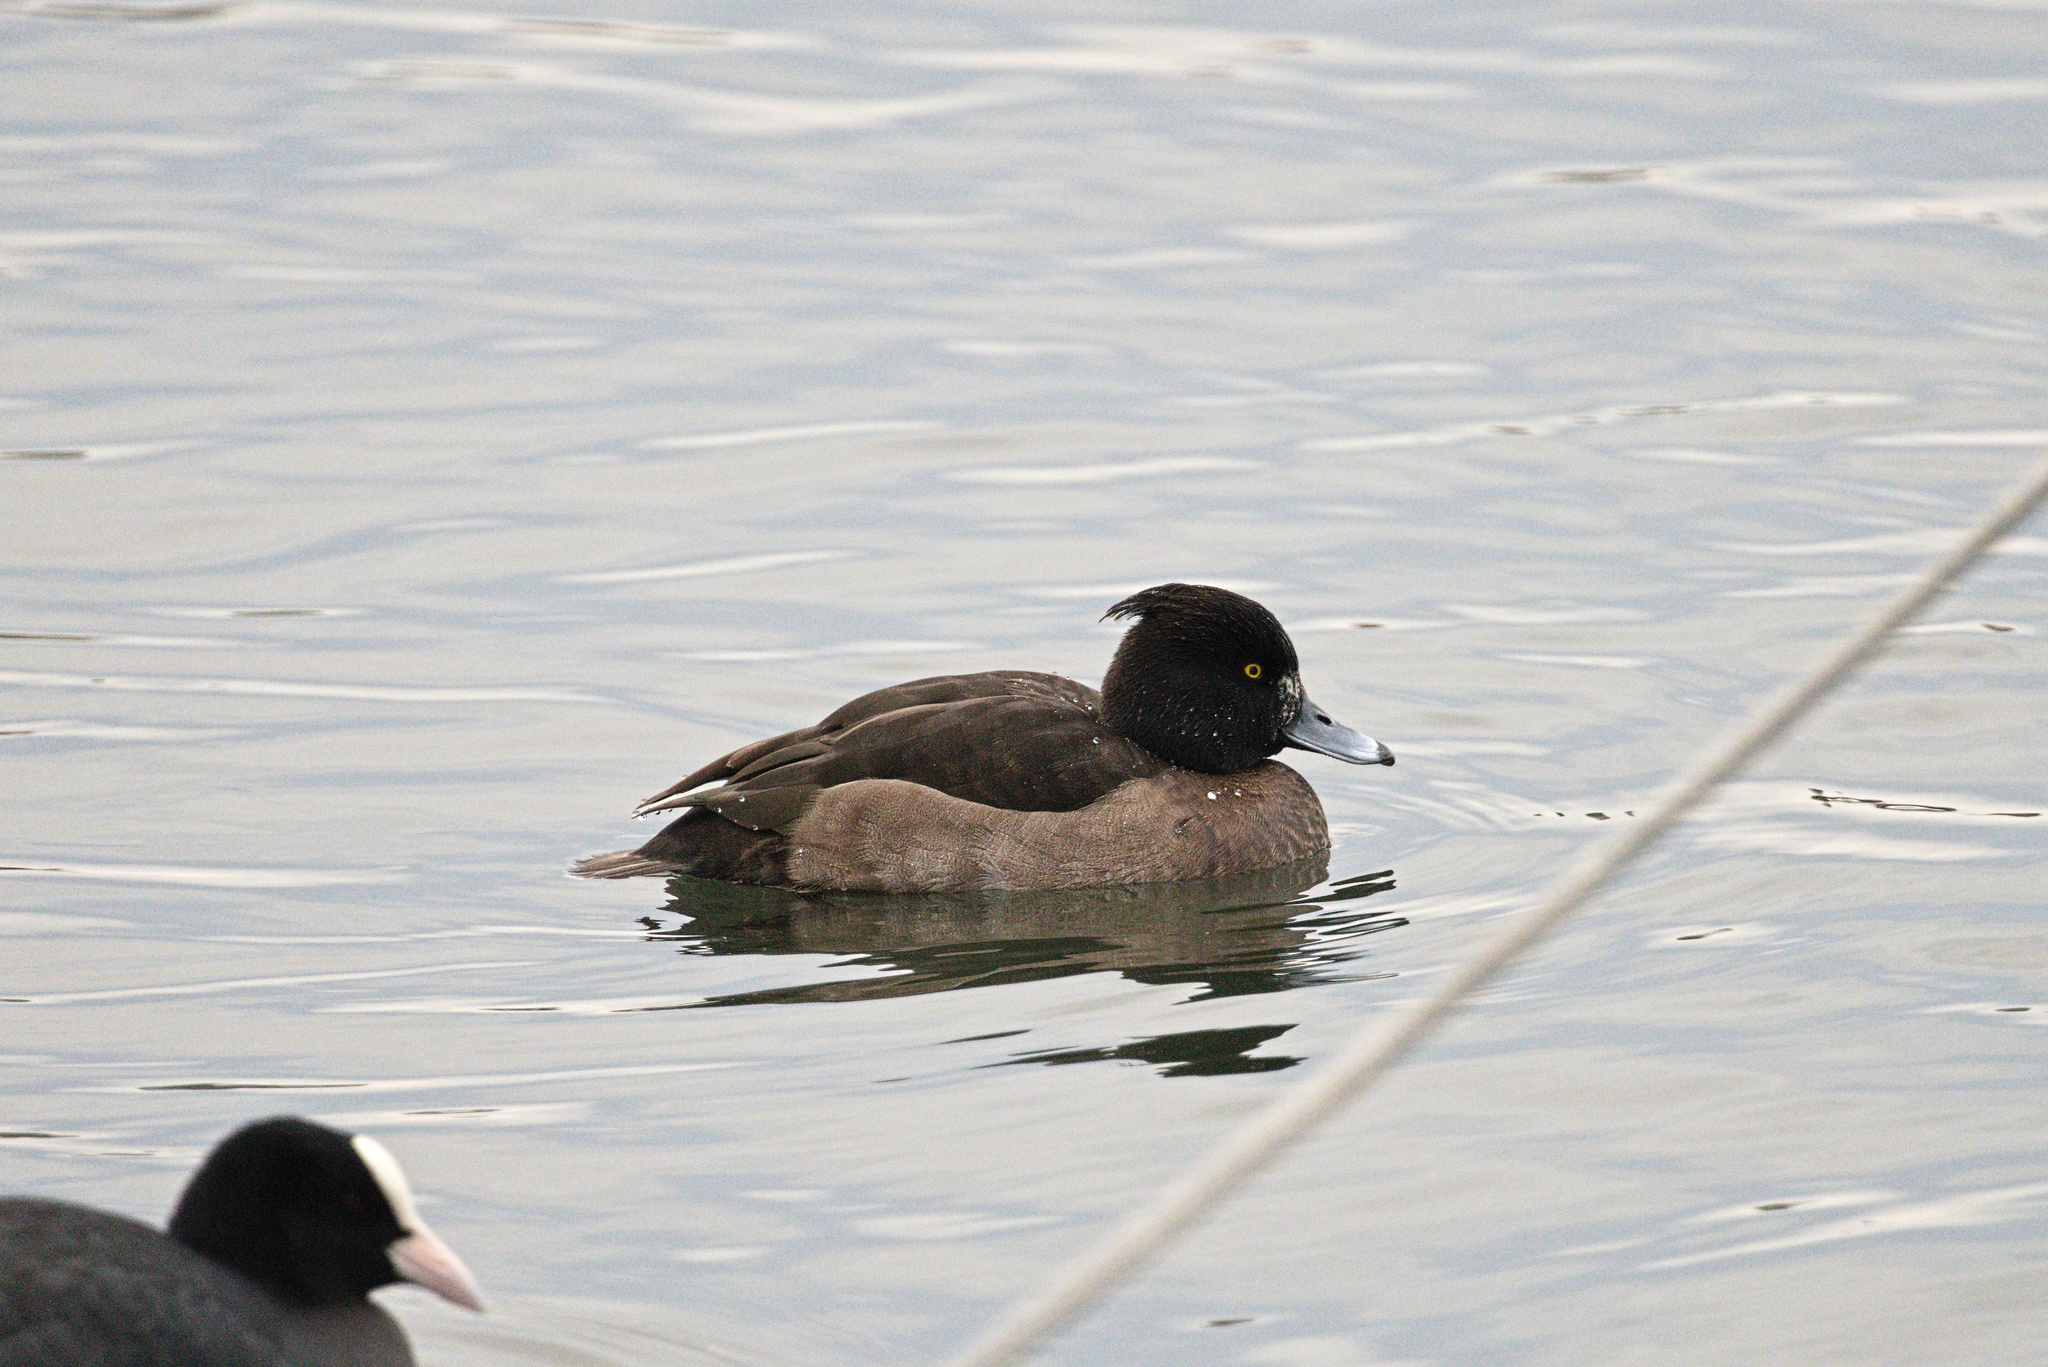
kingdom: Animalia
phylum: Chordata
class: Aves
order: Anseriformes
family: Anatidae
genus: Aythya
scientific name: Aythya fuligula
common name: Tufted duck
